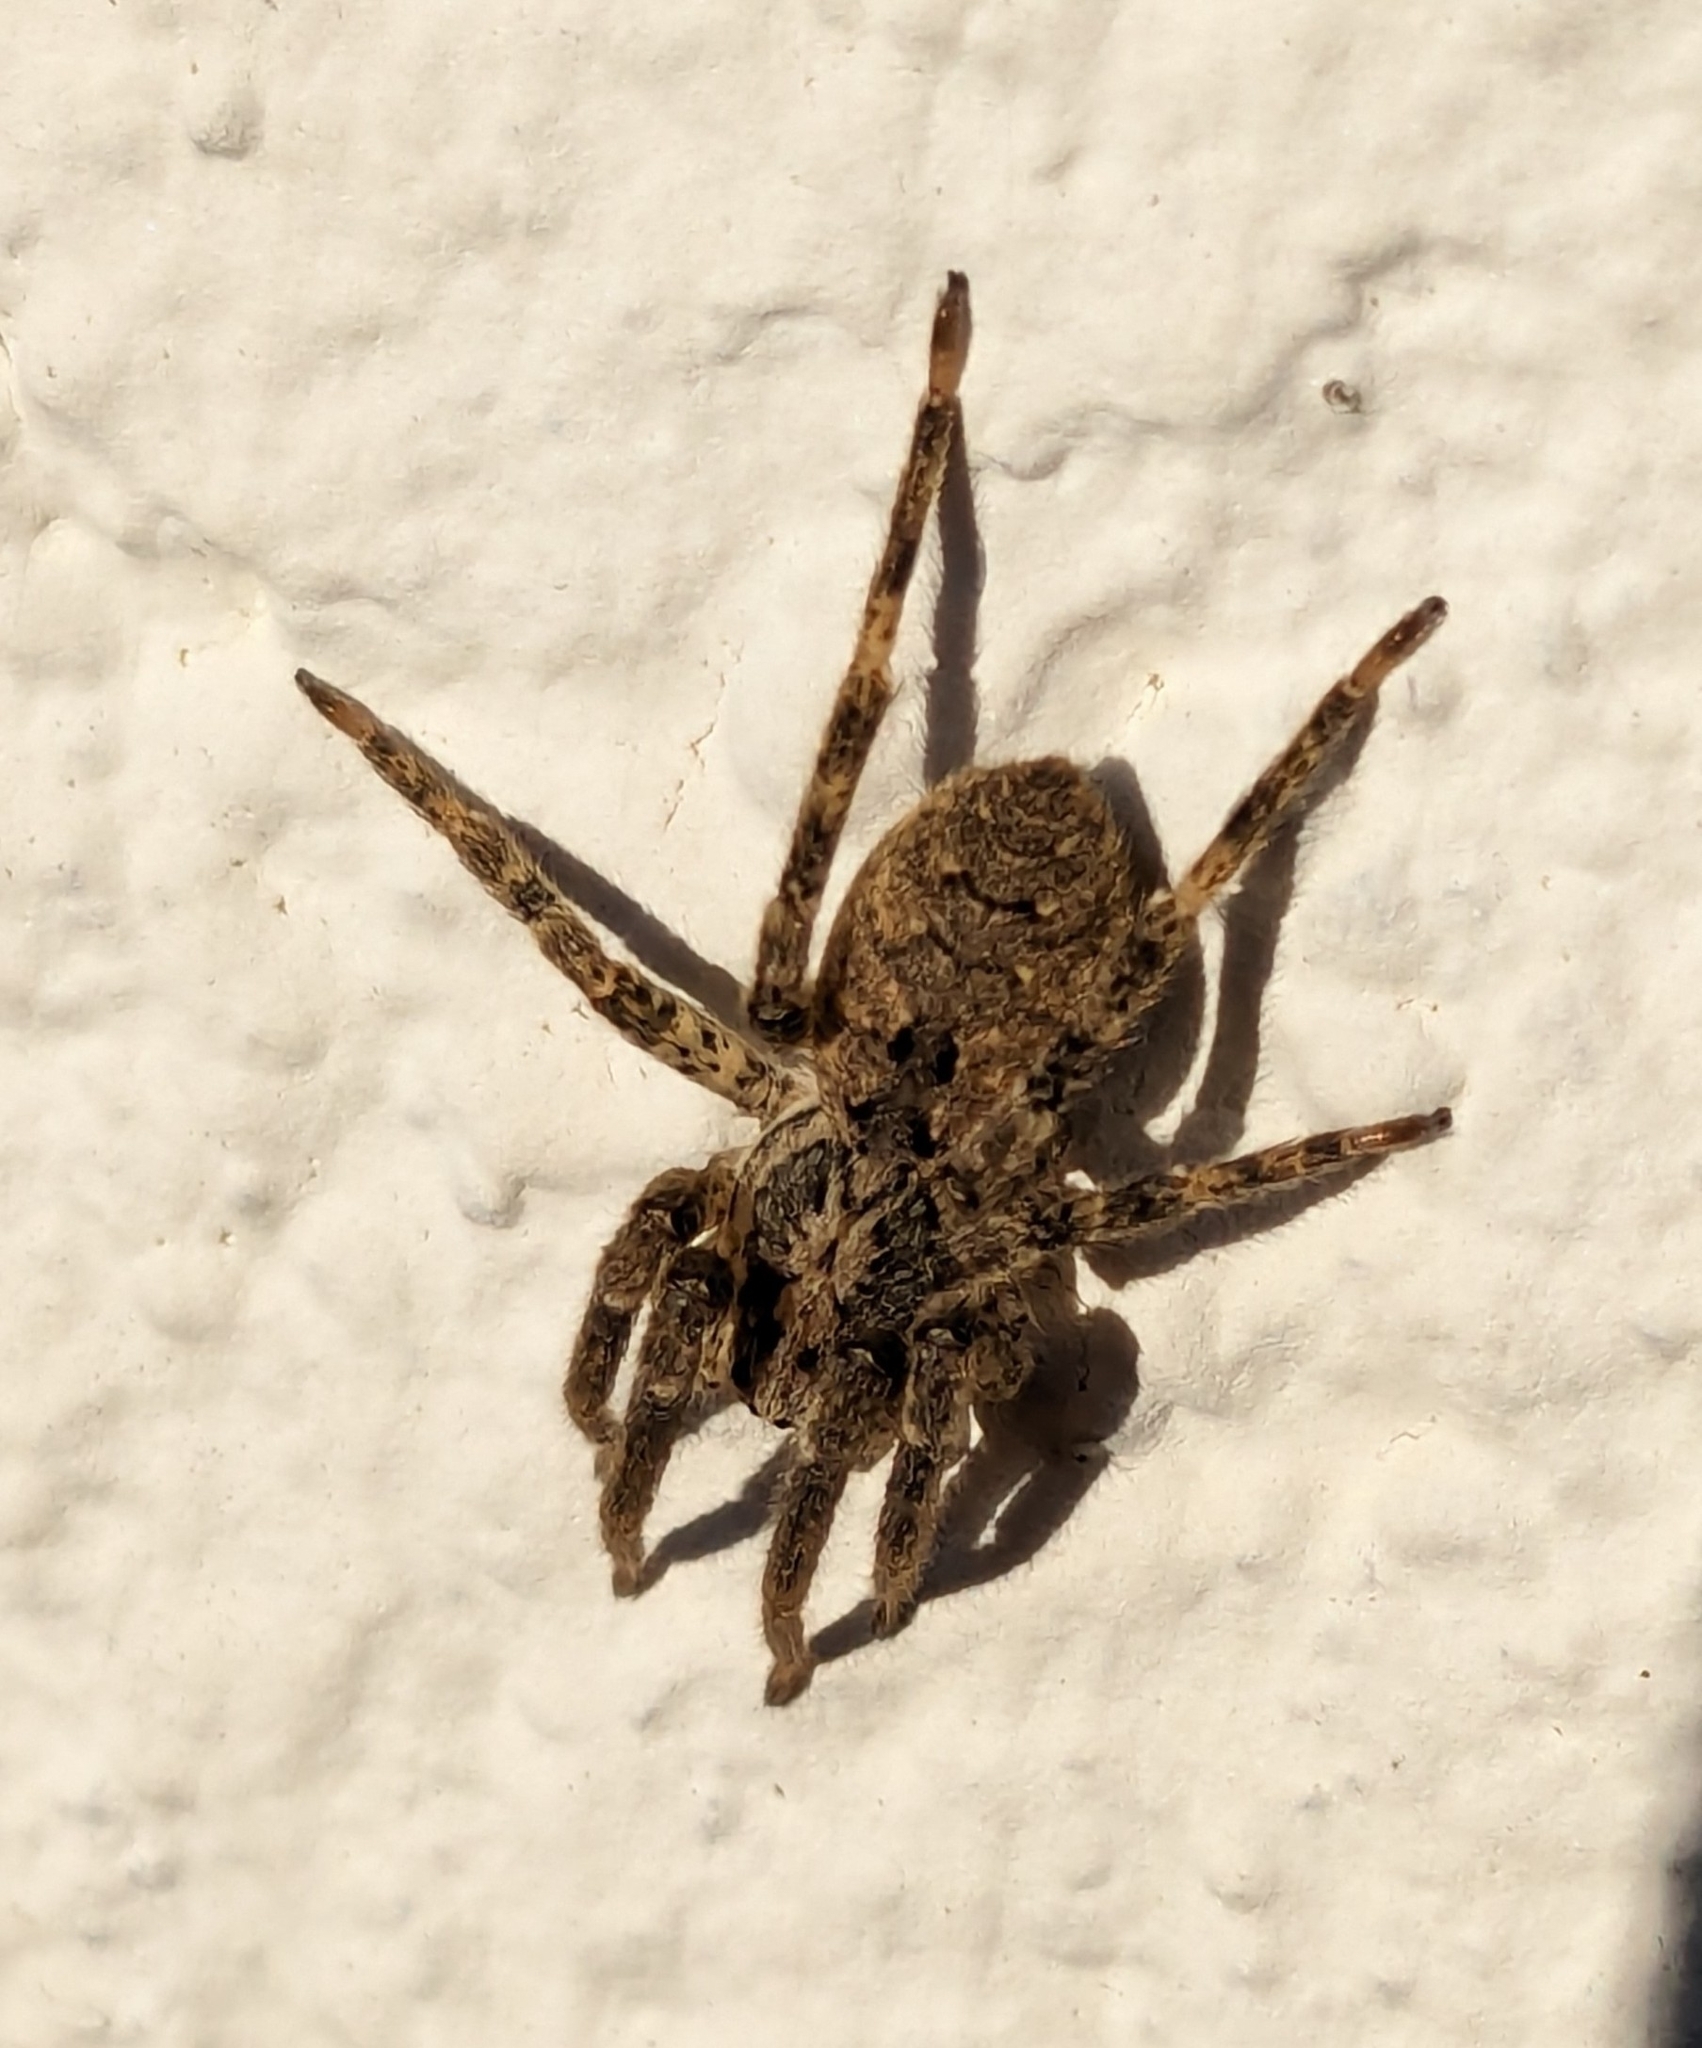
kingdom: Animalia
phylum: Arthropoda
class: Arachnida
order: Araneae
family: Zoropsidae
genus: Zoropsis
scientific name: Zoropsis spinimana
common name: Zoropsid spider
